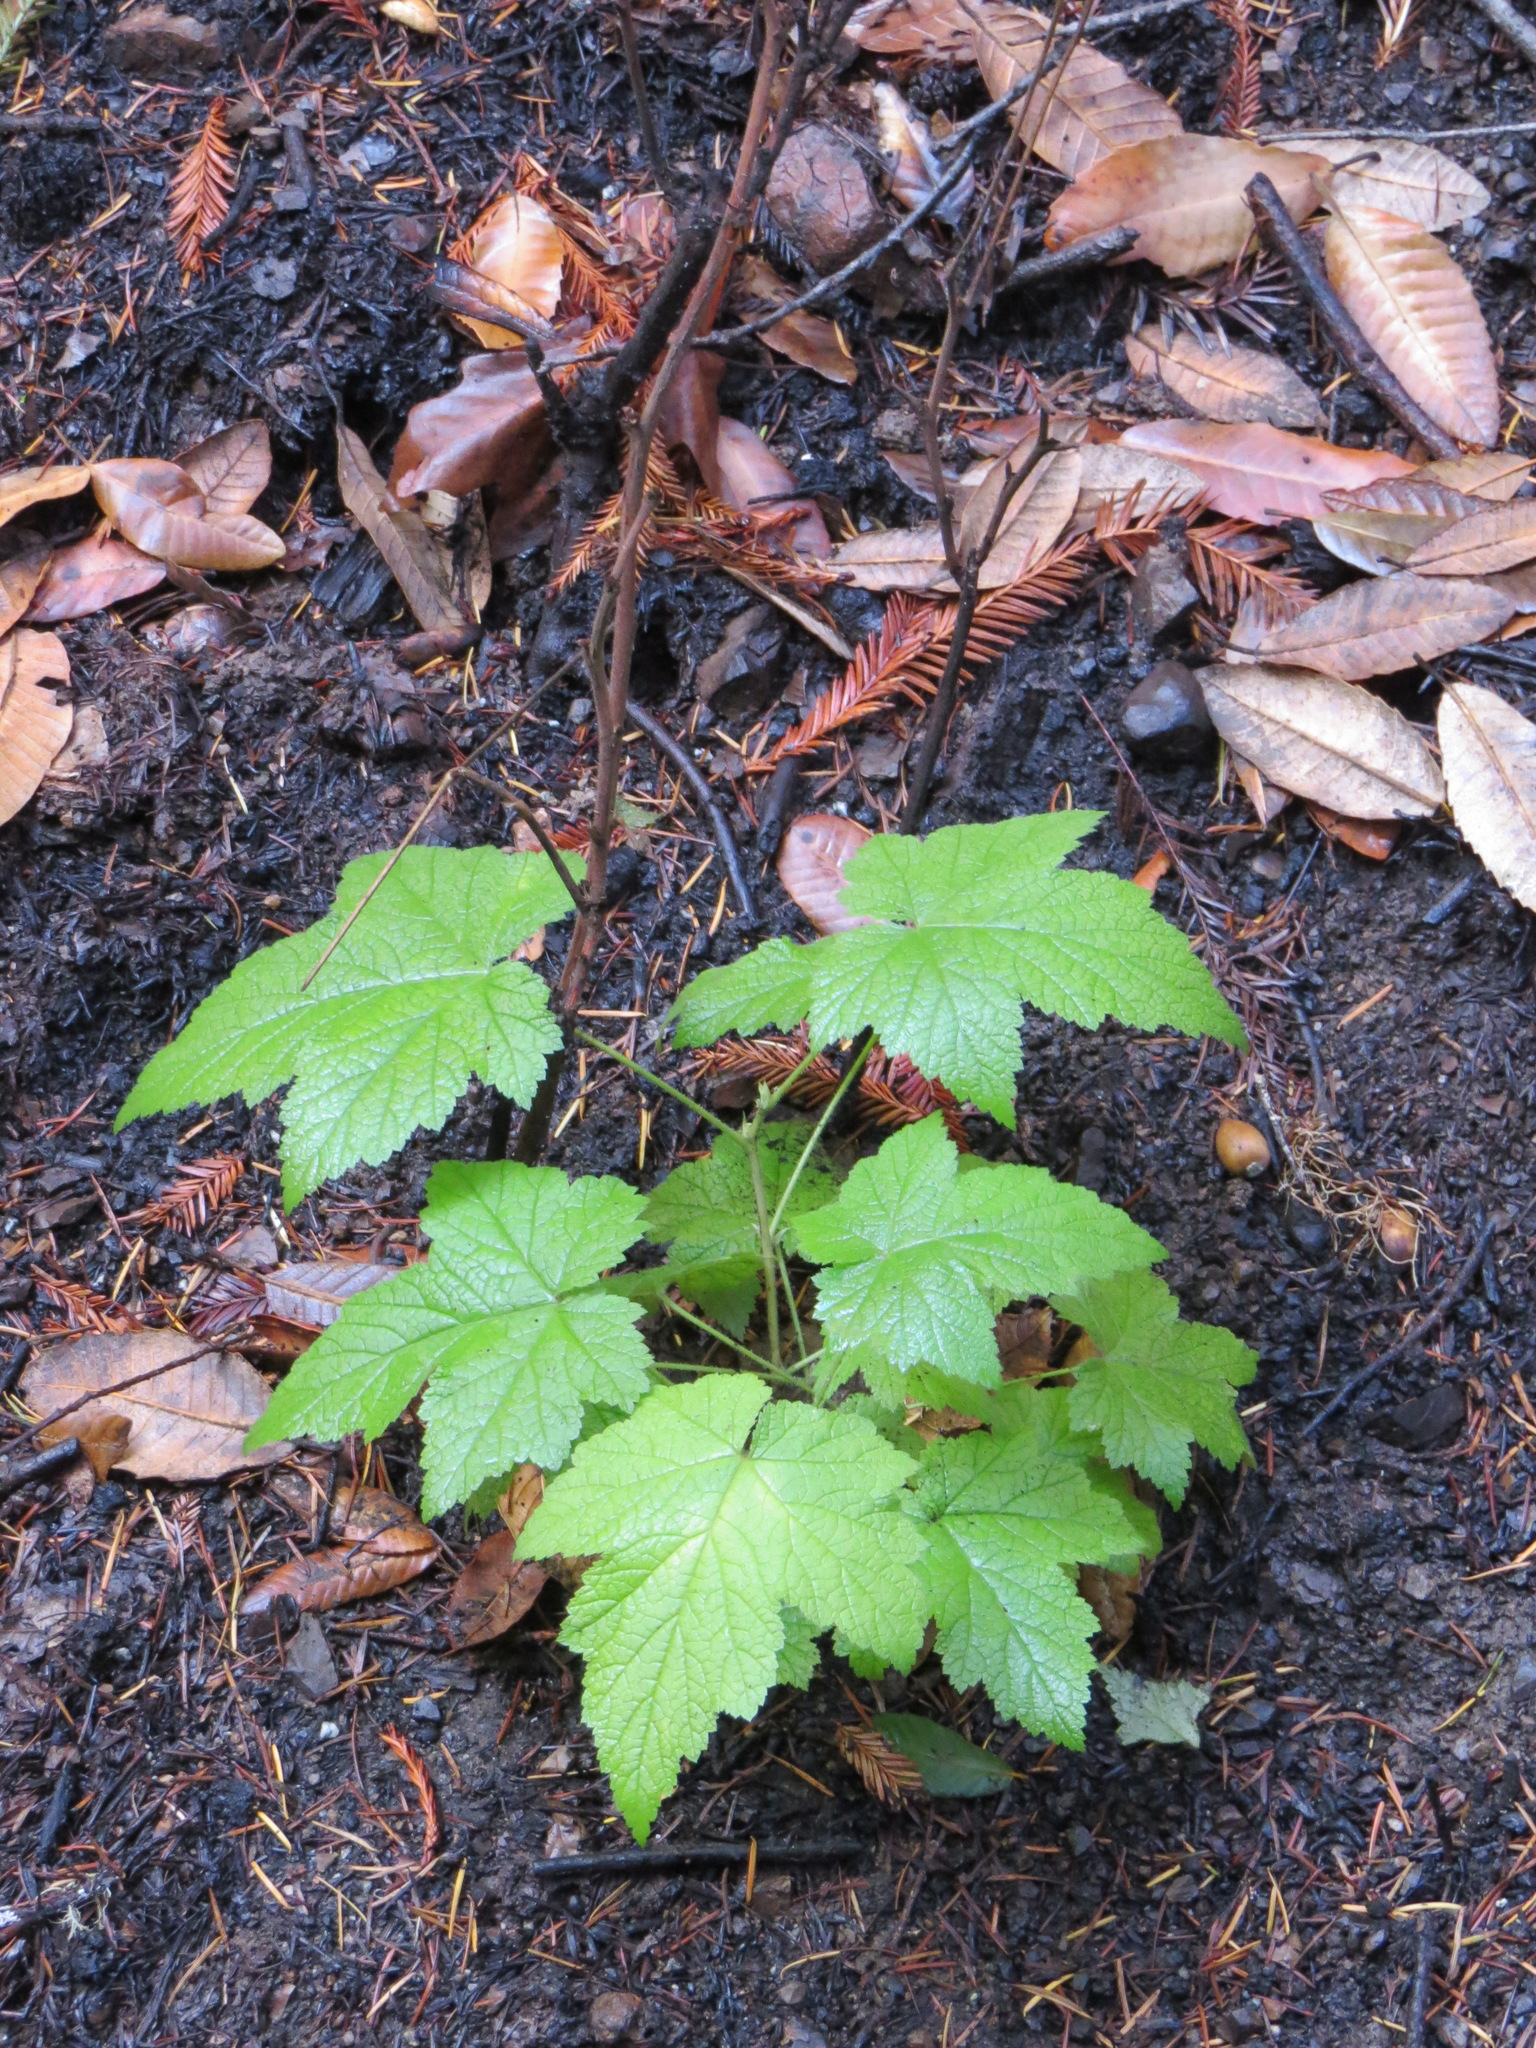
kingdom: Plantae
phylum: Tracheophyta
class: Magnoliopsida
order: Rosales
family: Rosaceae
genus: Rubus
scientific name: Rubus parviflorus
